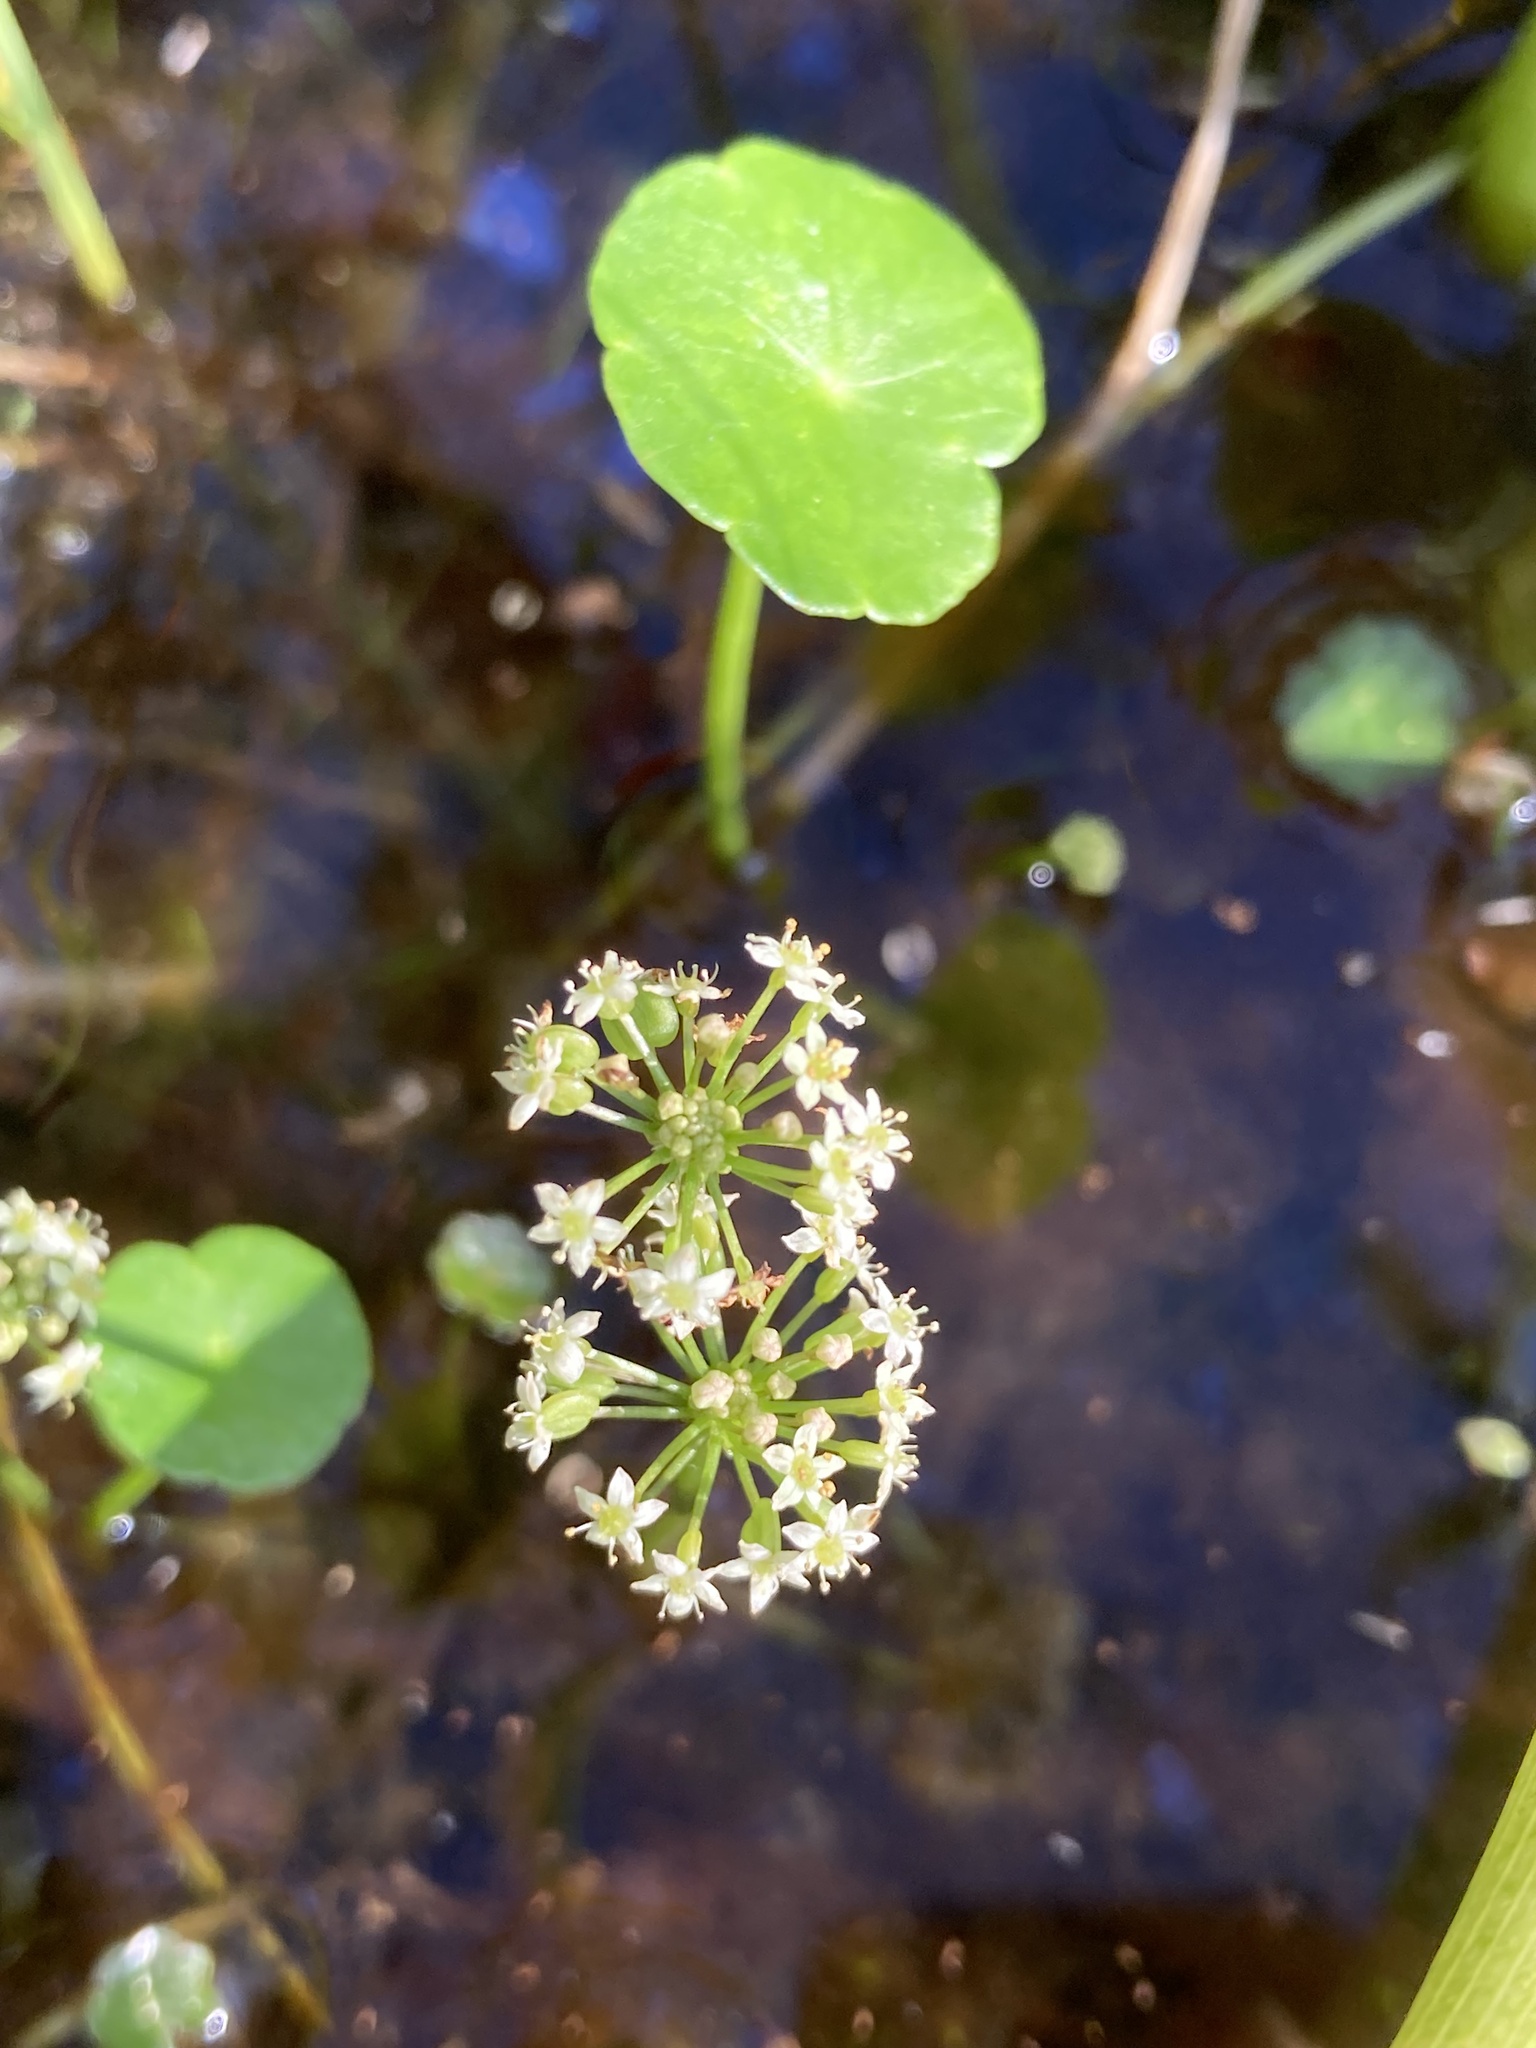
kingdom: Plantae
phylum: Tracheophyta
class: Magnoliopsida
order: Apiales
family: Araliaceae
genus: Hydrocotyle
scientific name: Hydrocotyle umbellata
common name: Water pennywort
